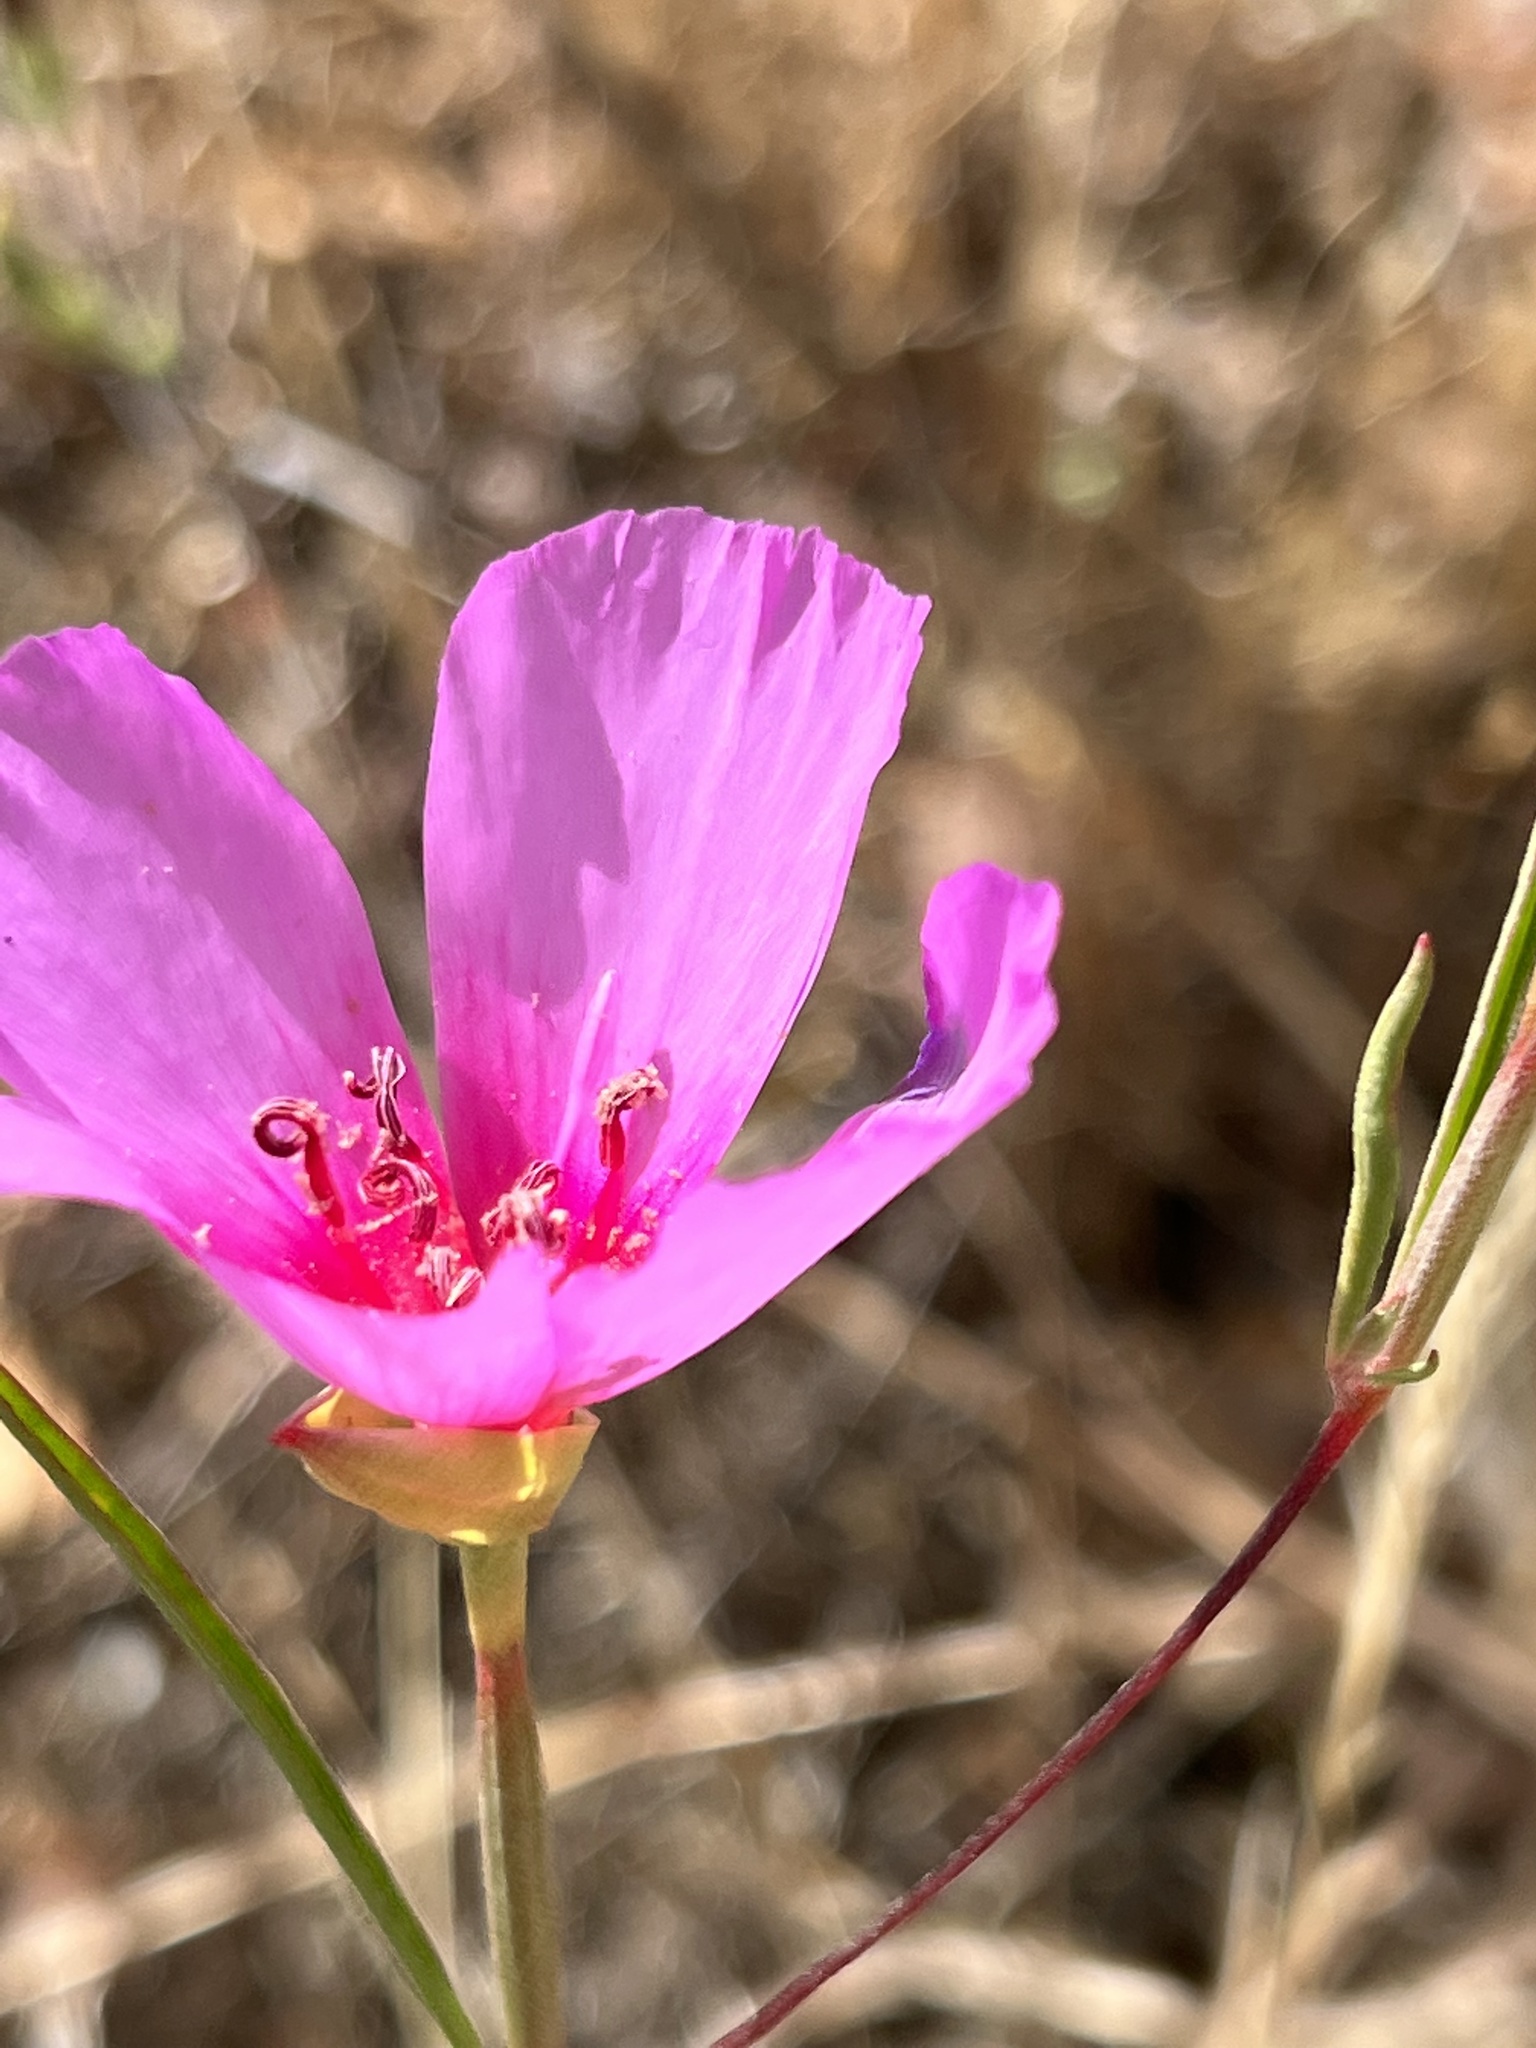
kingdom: Plantae
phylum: Tracheophyta
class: Magnoliopsida
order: Myrtales
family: Onagraceae
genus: Clarkia
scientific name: Clarkia rubicunda
